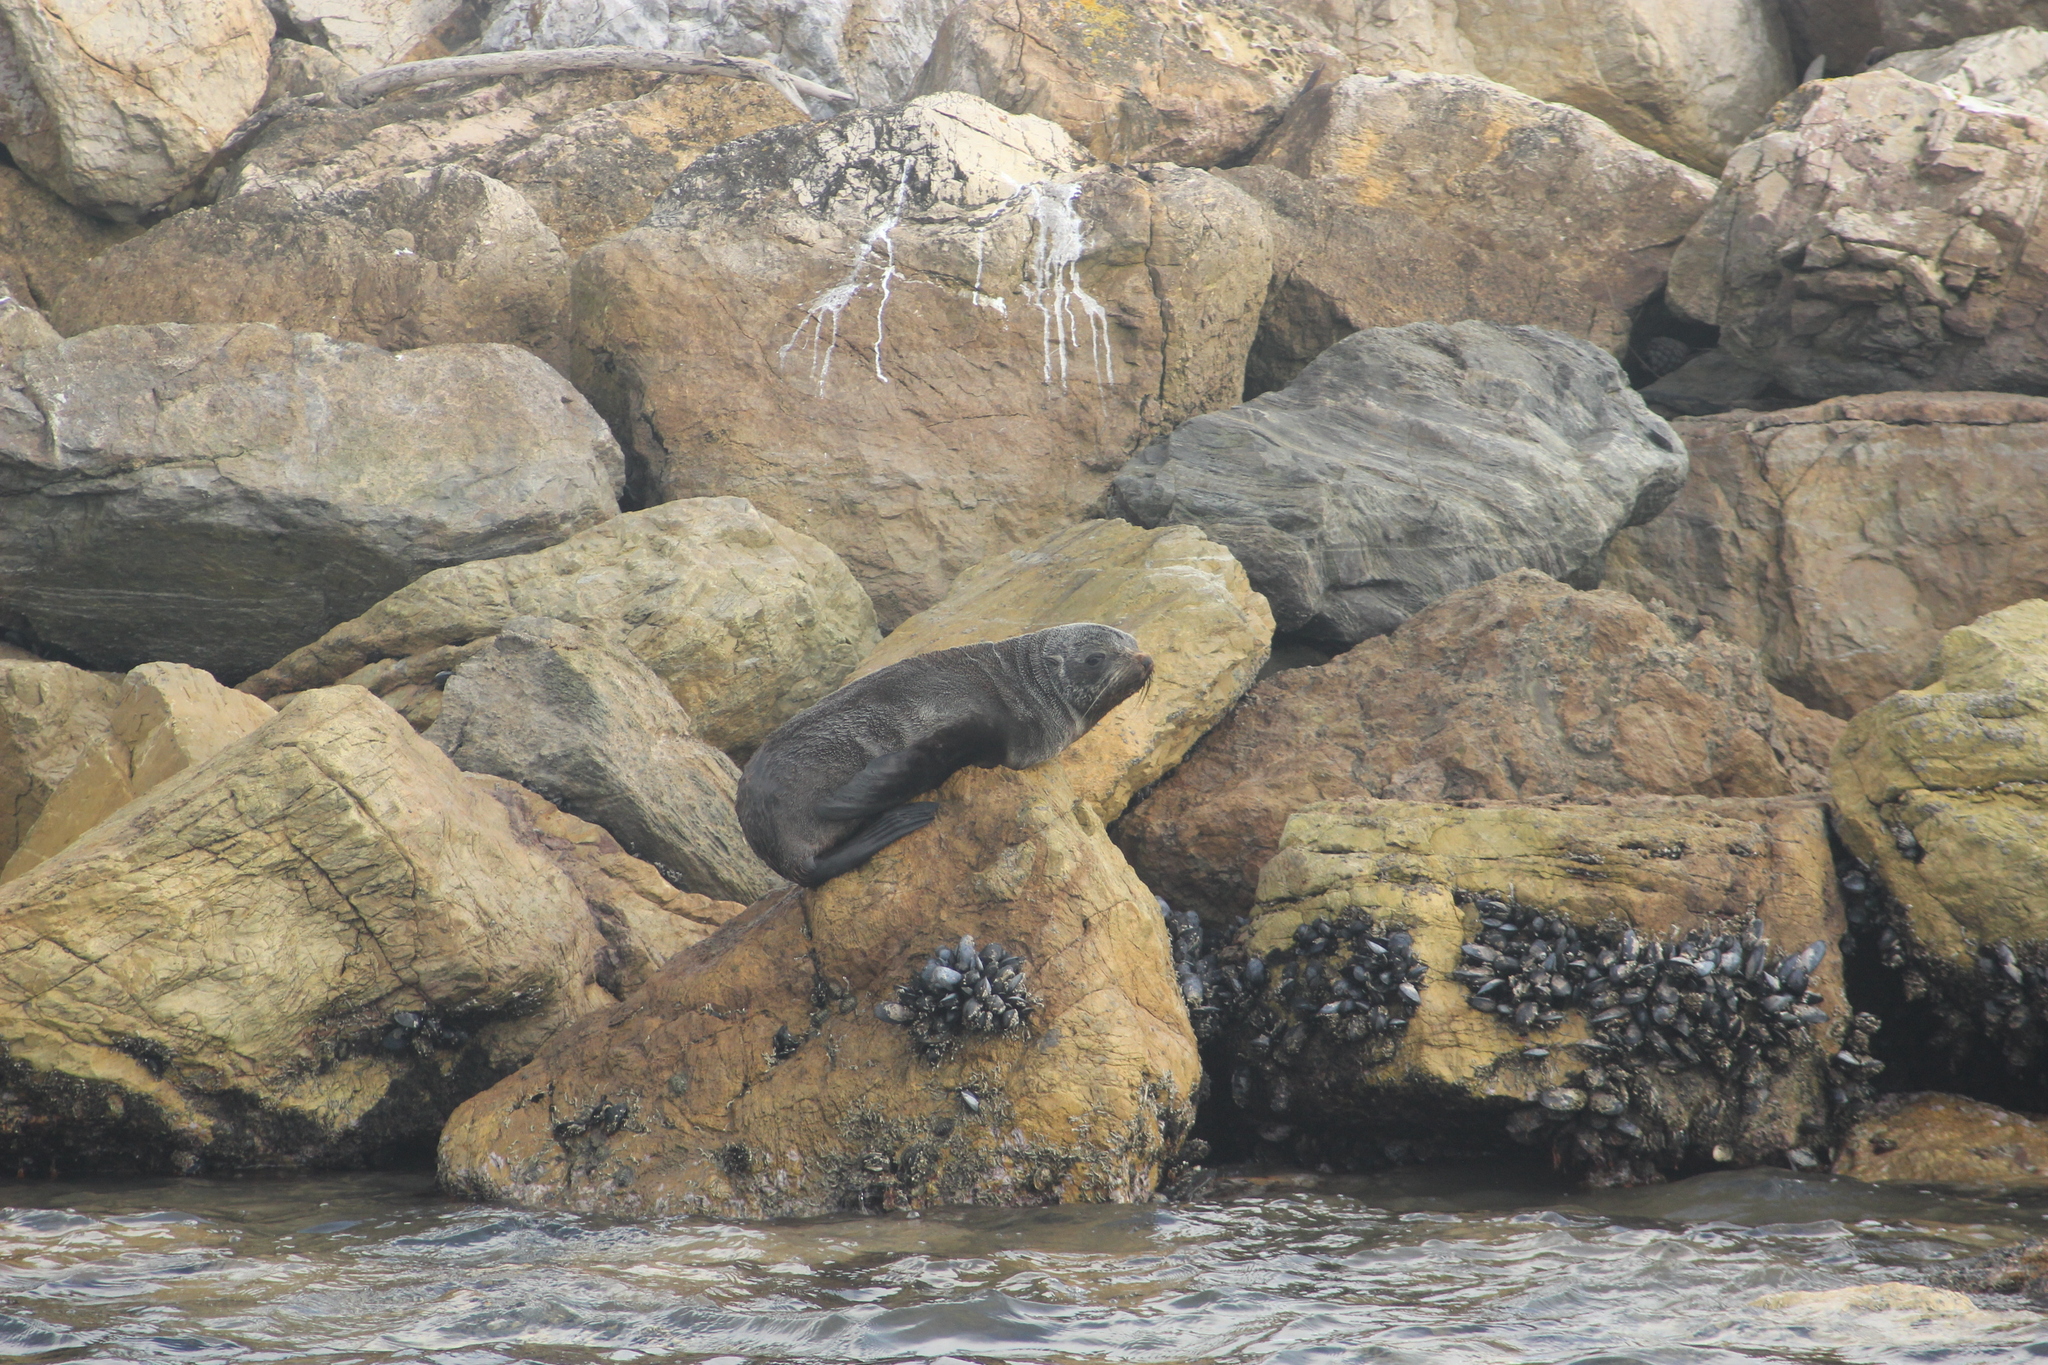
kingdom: Animalia
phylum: Chordata
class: Mammalia
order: Carnivora
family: Otariidae
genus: Arctocephalus
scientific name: Arctocephalus forsteri
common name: New zealand fur seal
